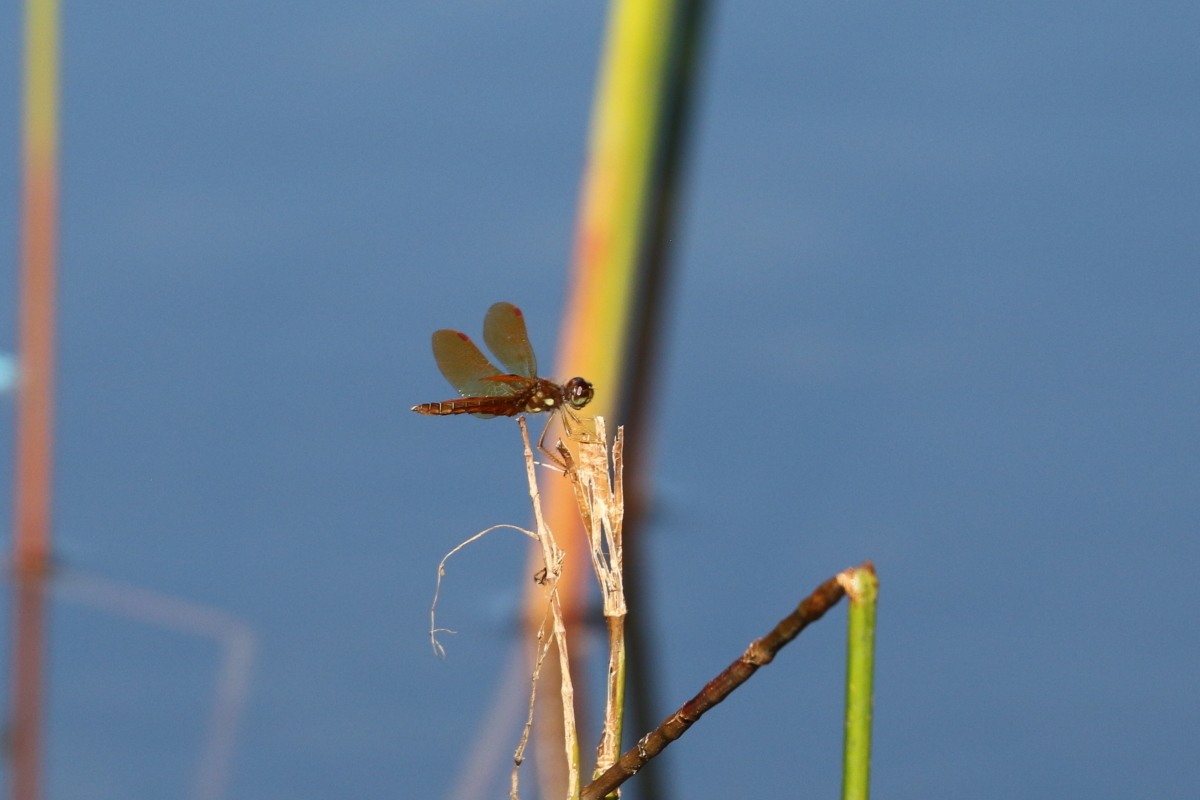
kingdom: Animalia
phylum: Arthropoda
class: Insecta
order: Odonata
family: Libellulidae
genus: Perithemis
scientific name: Perithemis tenera
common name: Eastern amberwing
